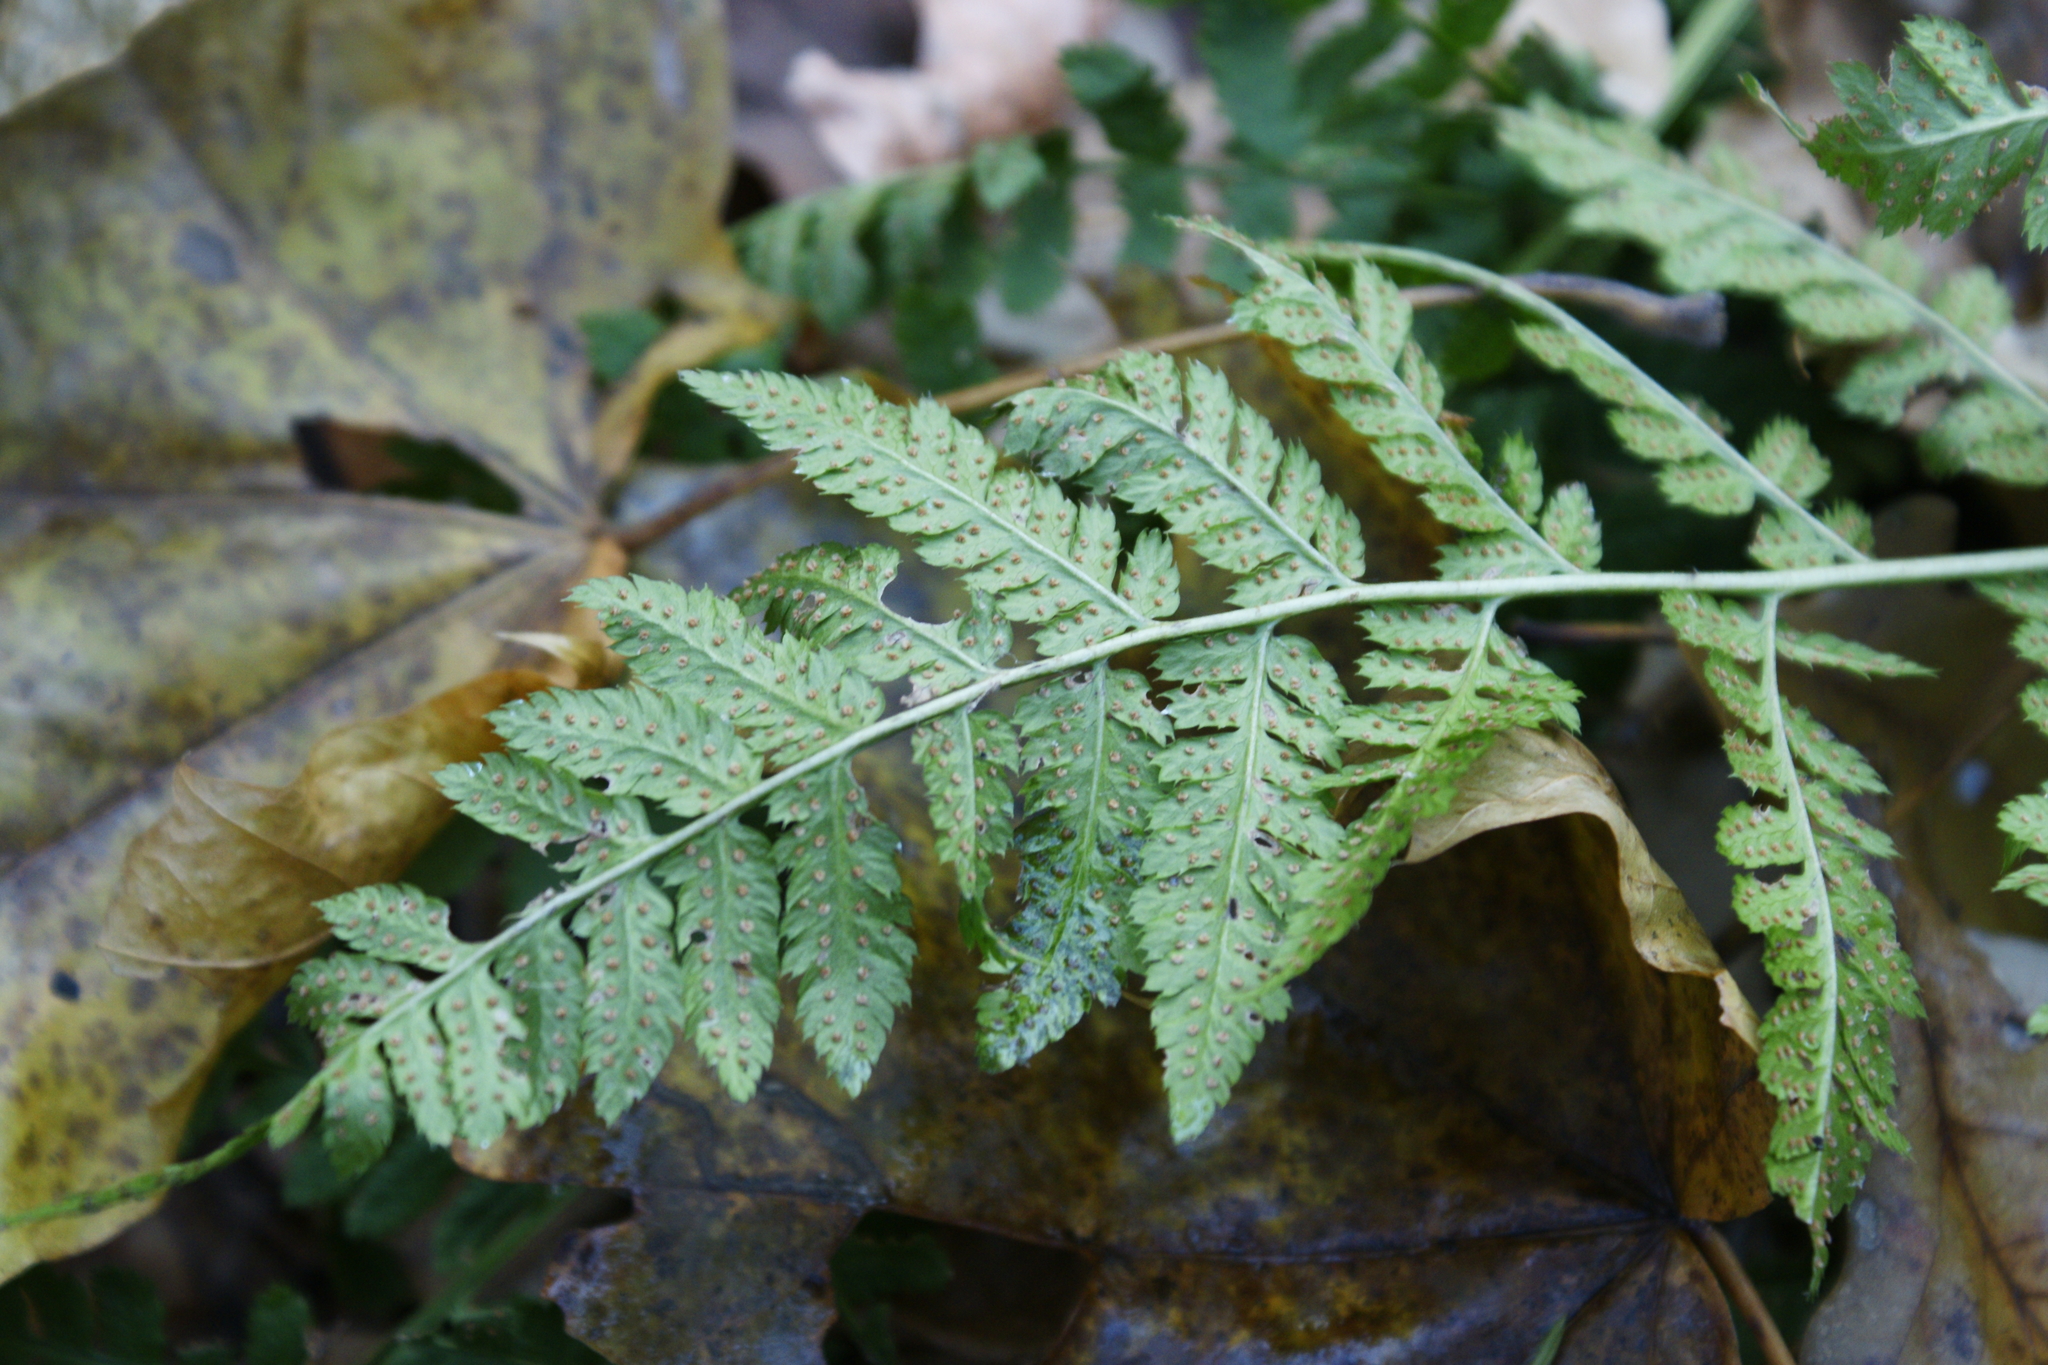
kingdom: Plantae
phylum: Tracheophyta
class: Polypodiopsida
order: Polypodiales
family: Dryopteridaceae
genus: Dryopteris
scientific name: Dryopteris carthusiana
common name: Narrow buckler-fern
